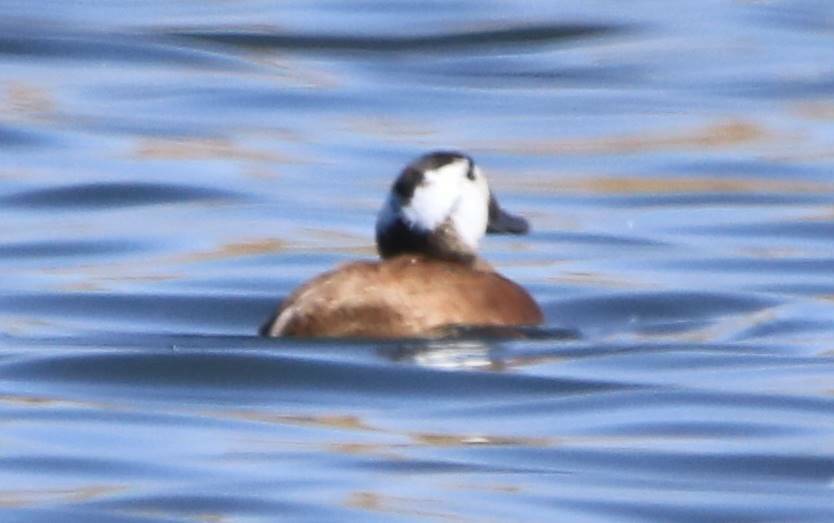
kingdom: Animalia
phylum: Chordata
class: Aves
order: Anseriformes
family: Anatidae
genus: Oxyura
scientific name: Oxyura leucocephala
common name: White-headed duck
